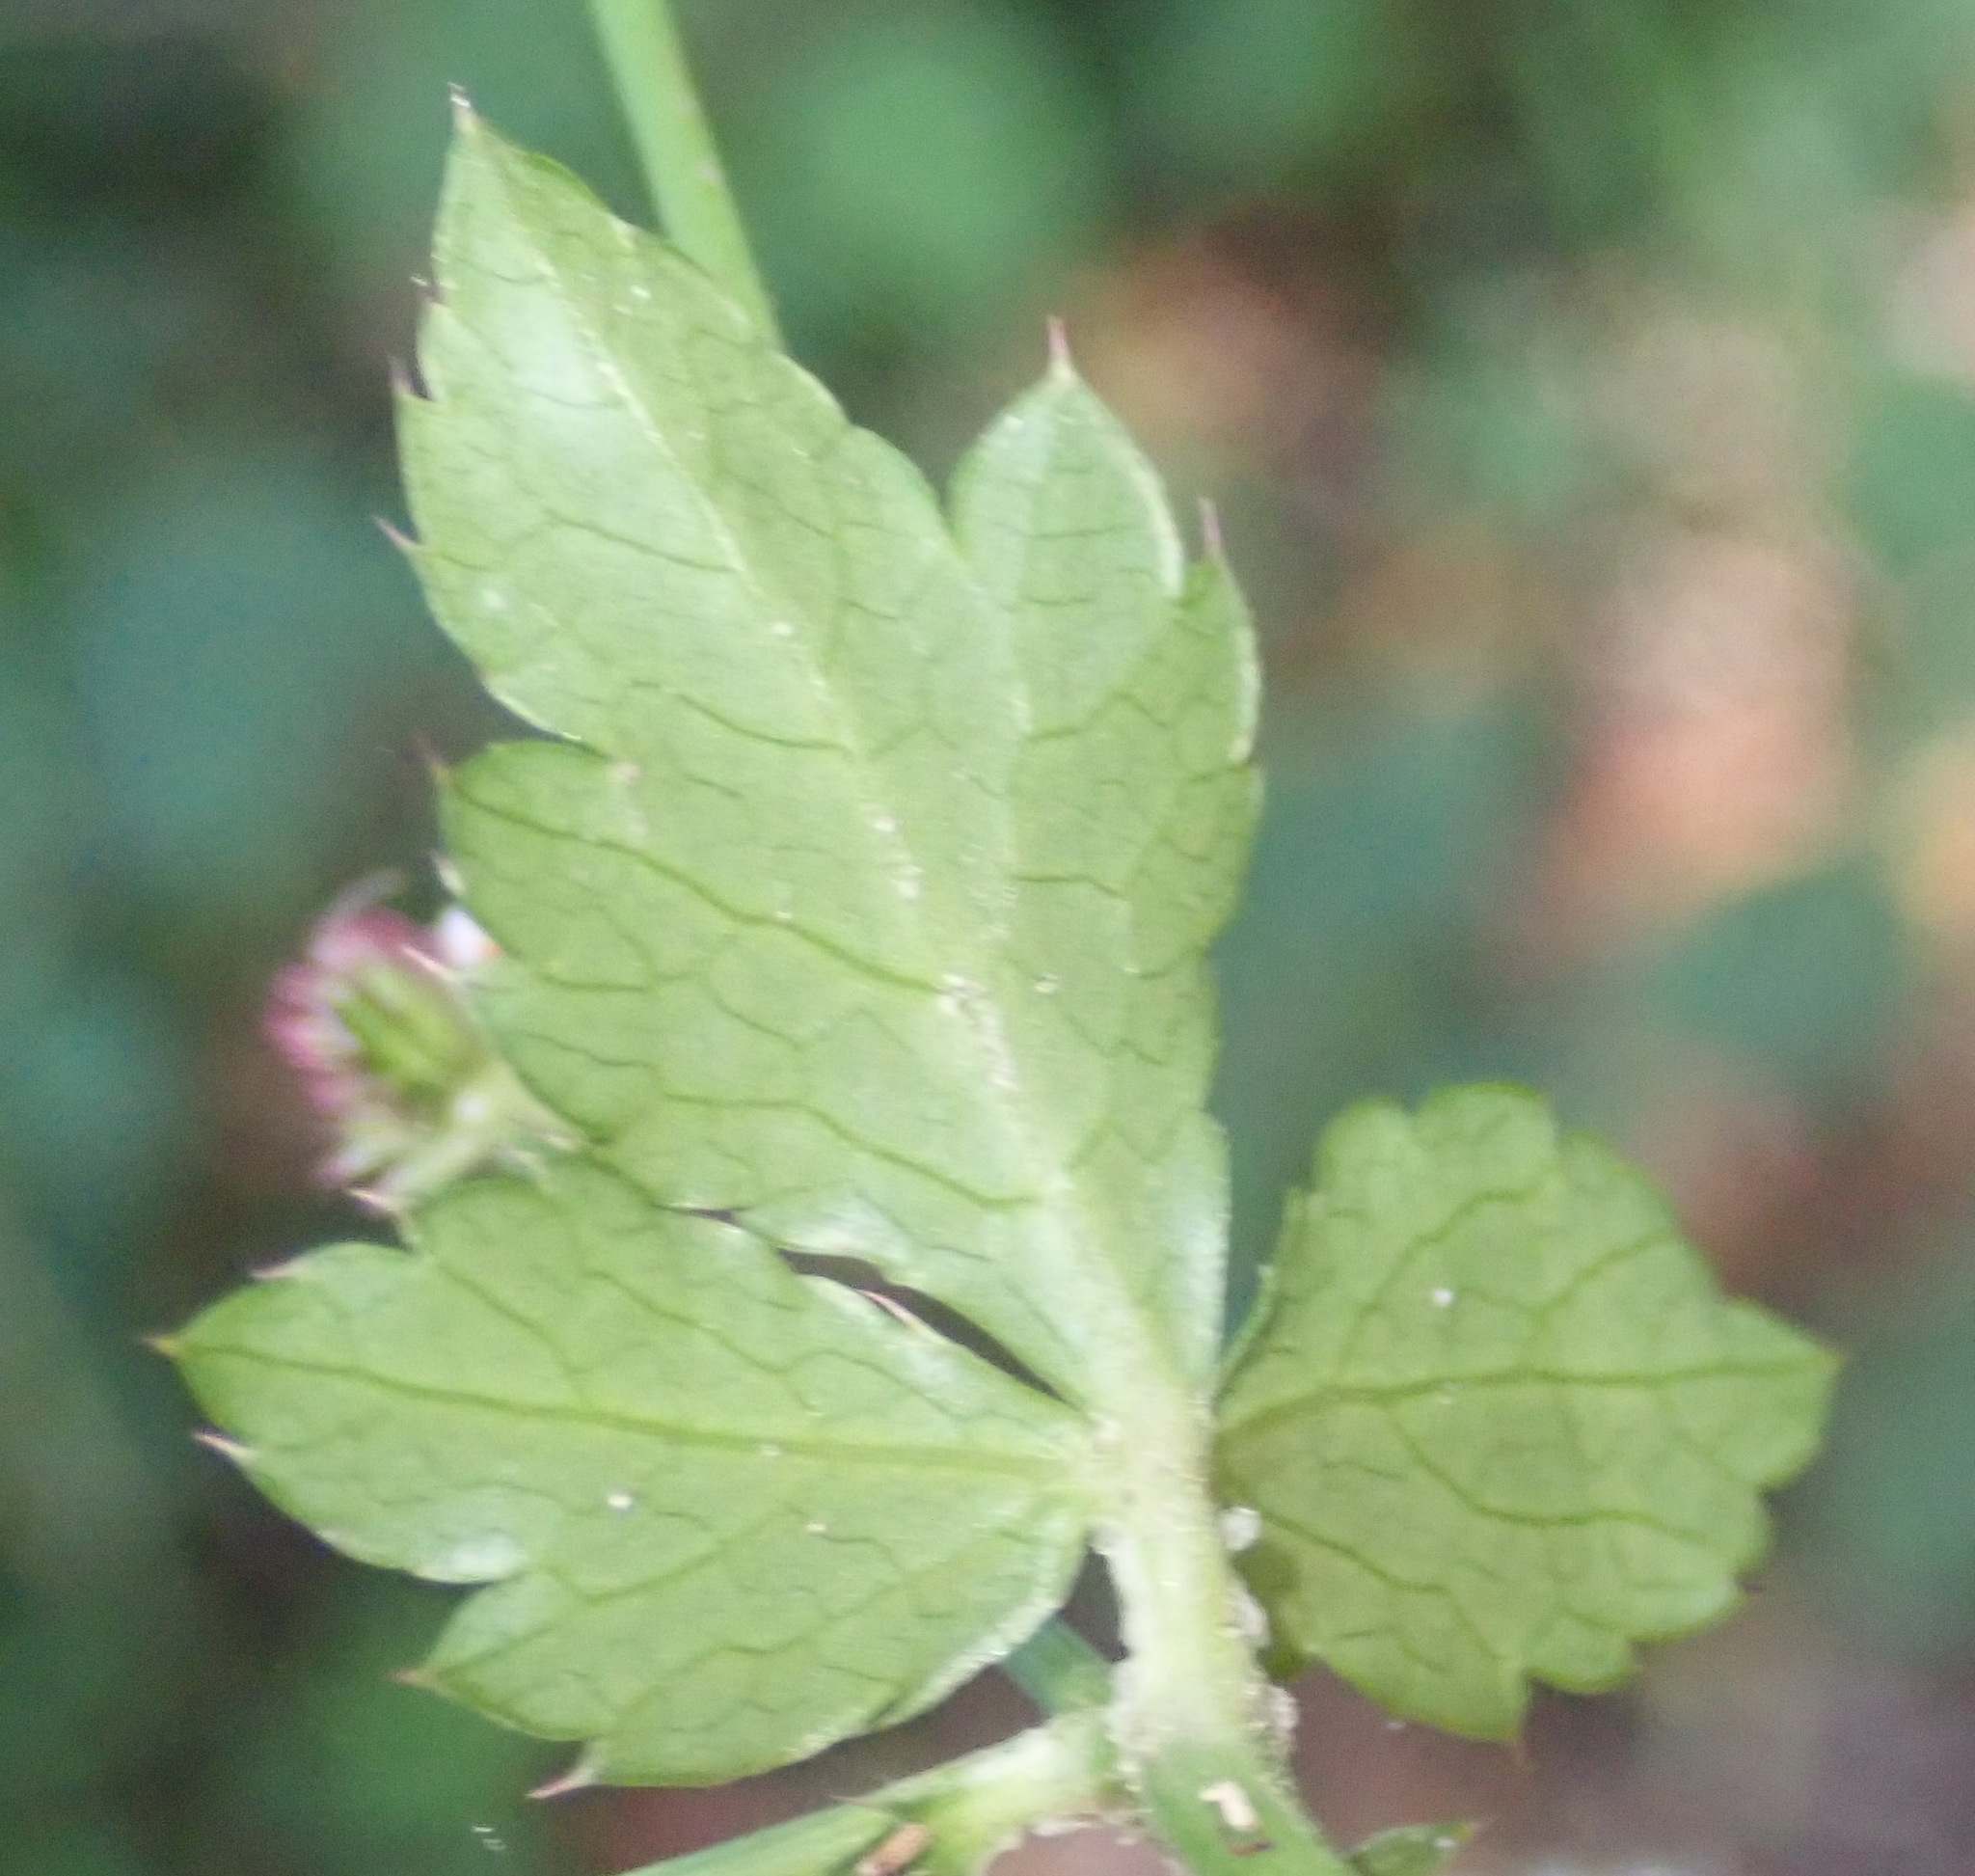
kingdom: Plantae
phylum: Tracheophyta
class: Magnoliopsida
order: Apiales
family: Apiaceae
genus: Sanicula
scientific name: Sanicula elata
